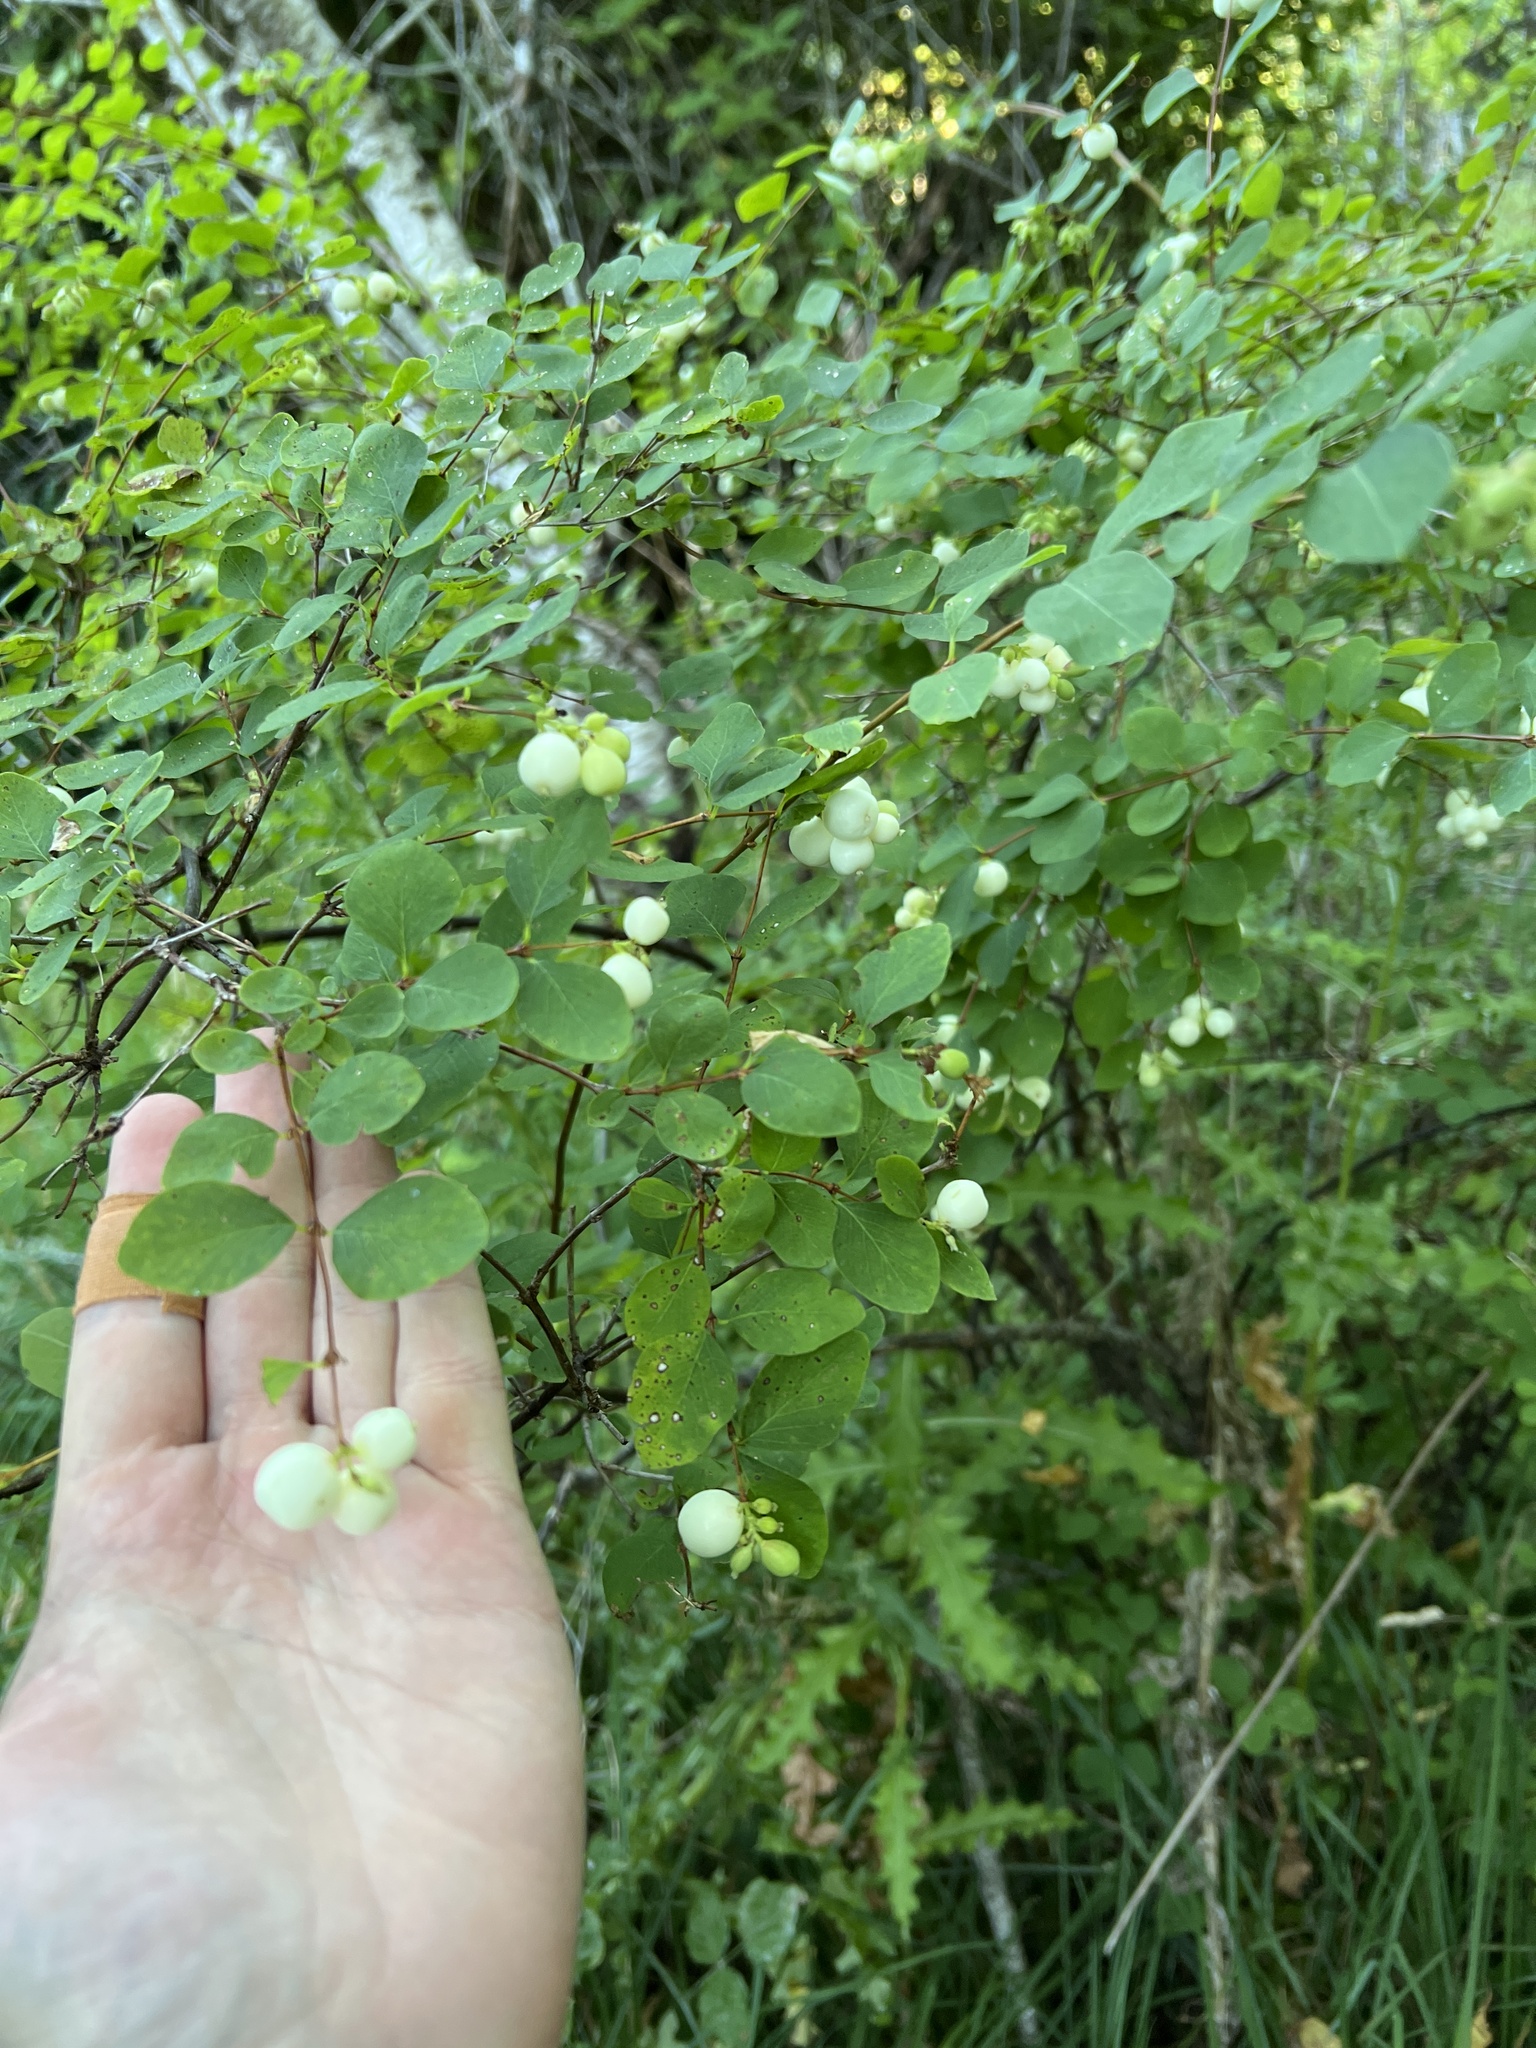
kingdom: Plantae
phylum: Tracheophyta
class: Magnoliopsida
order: Dipsacales
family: Caprifoliaceae
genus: Symphoricarpos
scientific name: Symphoricarpos albus
